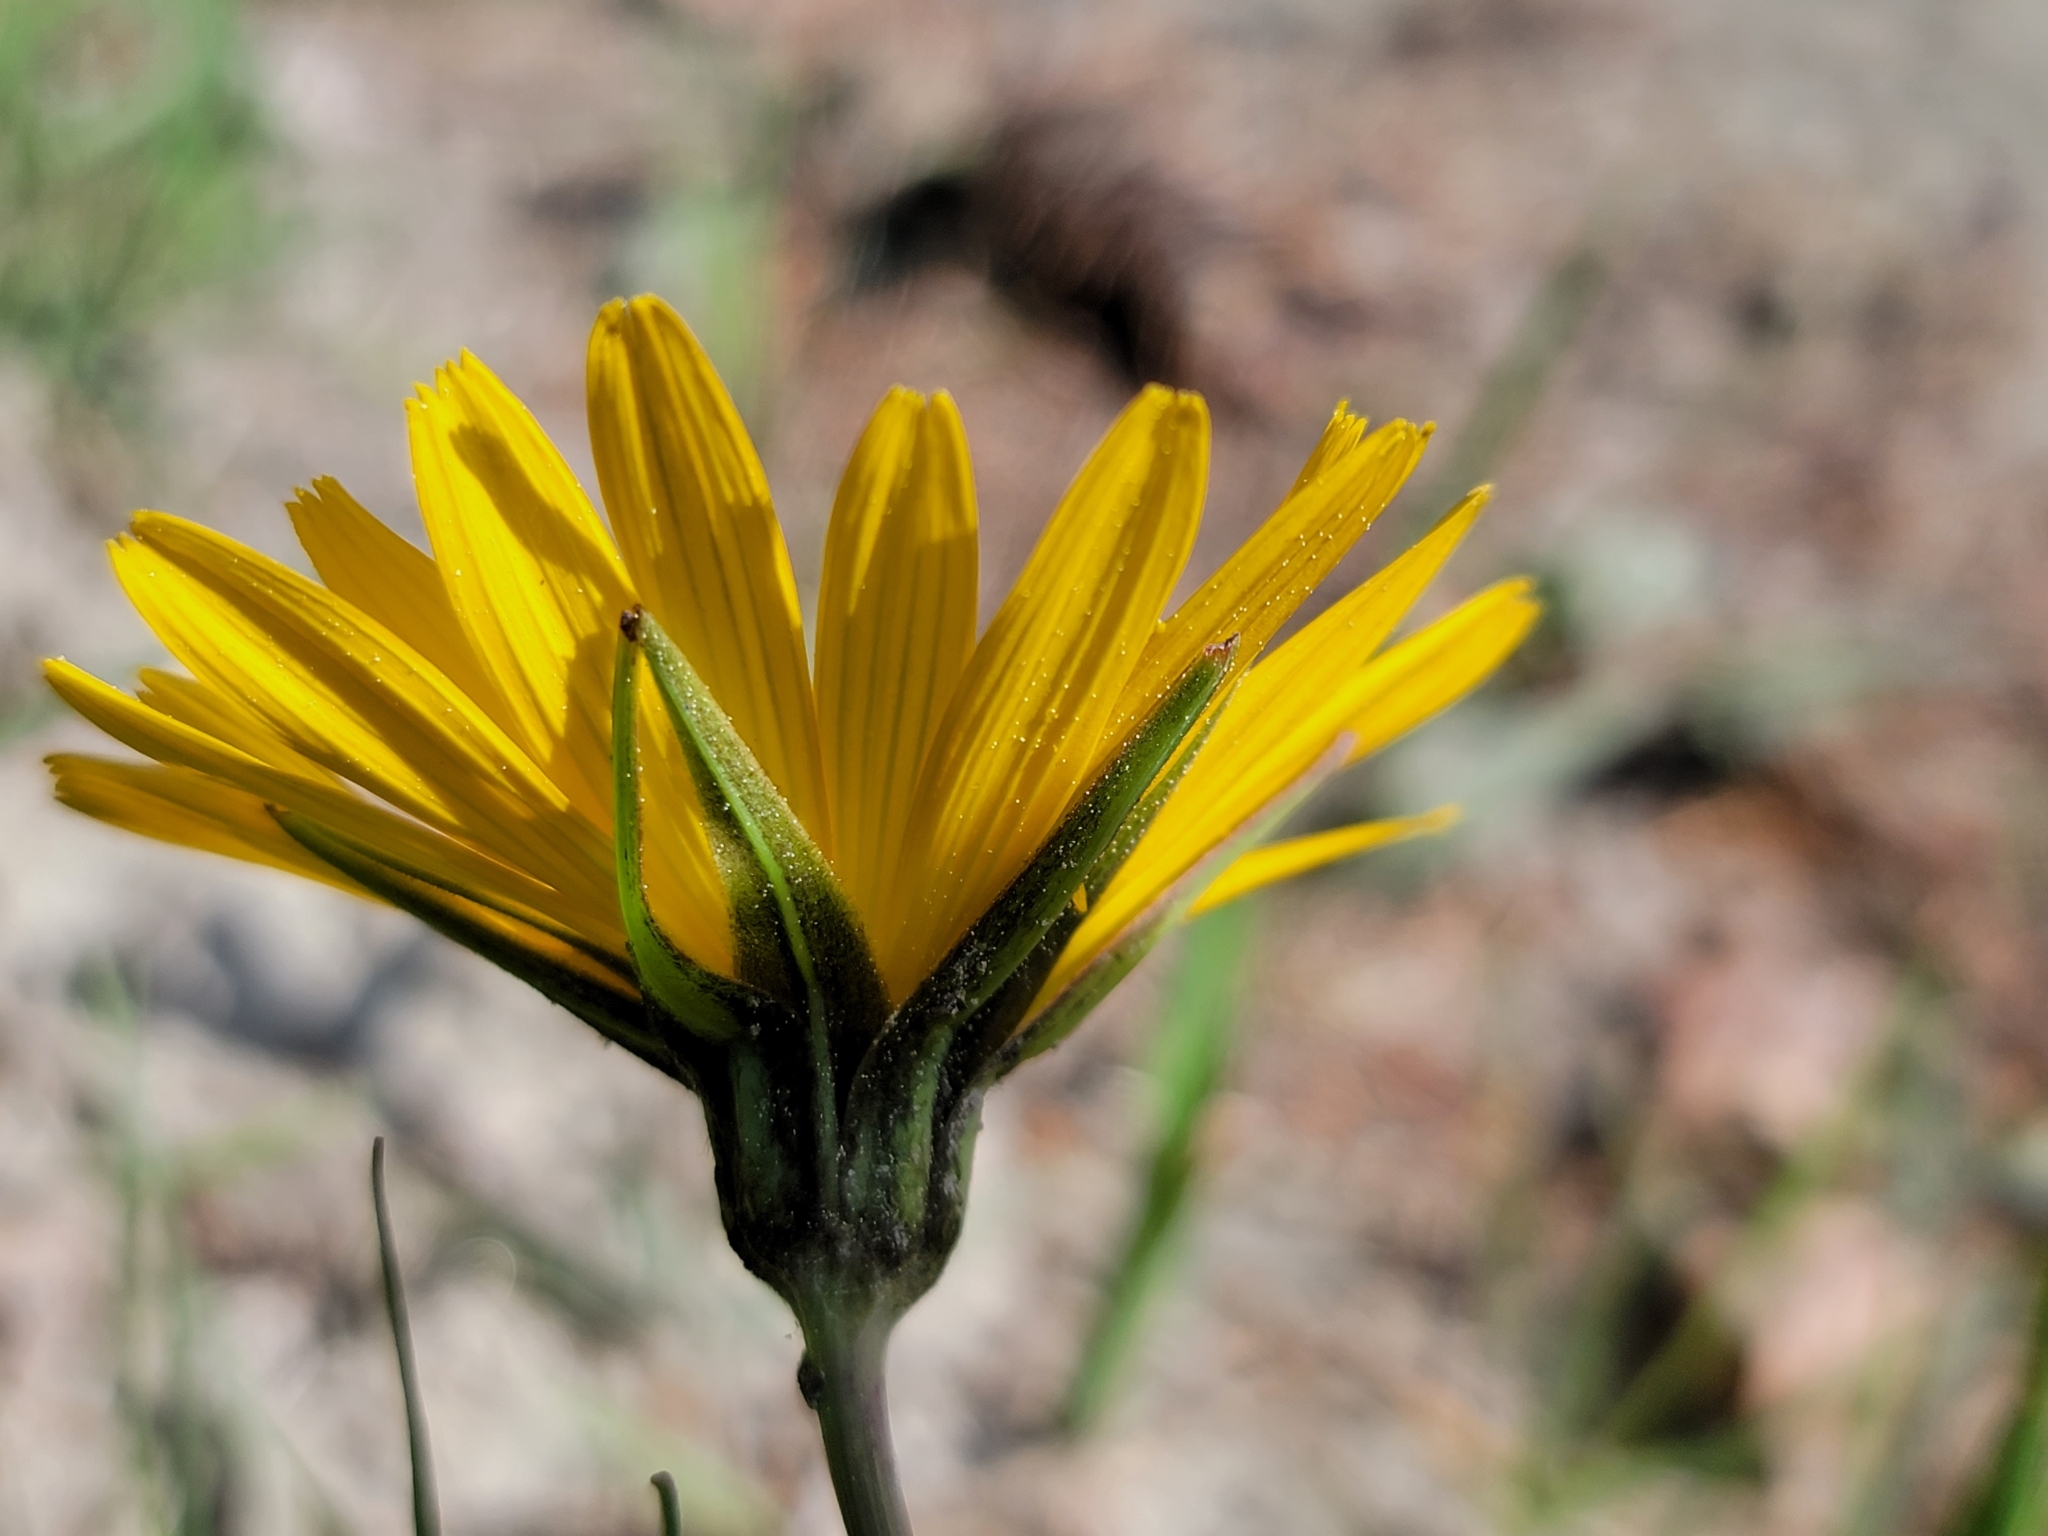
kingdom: Plantae
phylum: Tracheophyta
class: Magnoliopsida
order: Asterales
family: Asteraceae
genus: Tragopogon
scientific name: Tragopogon orientalis
